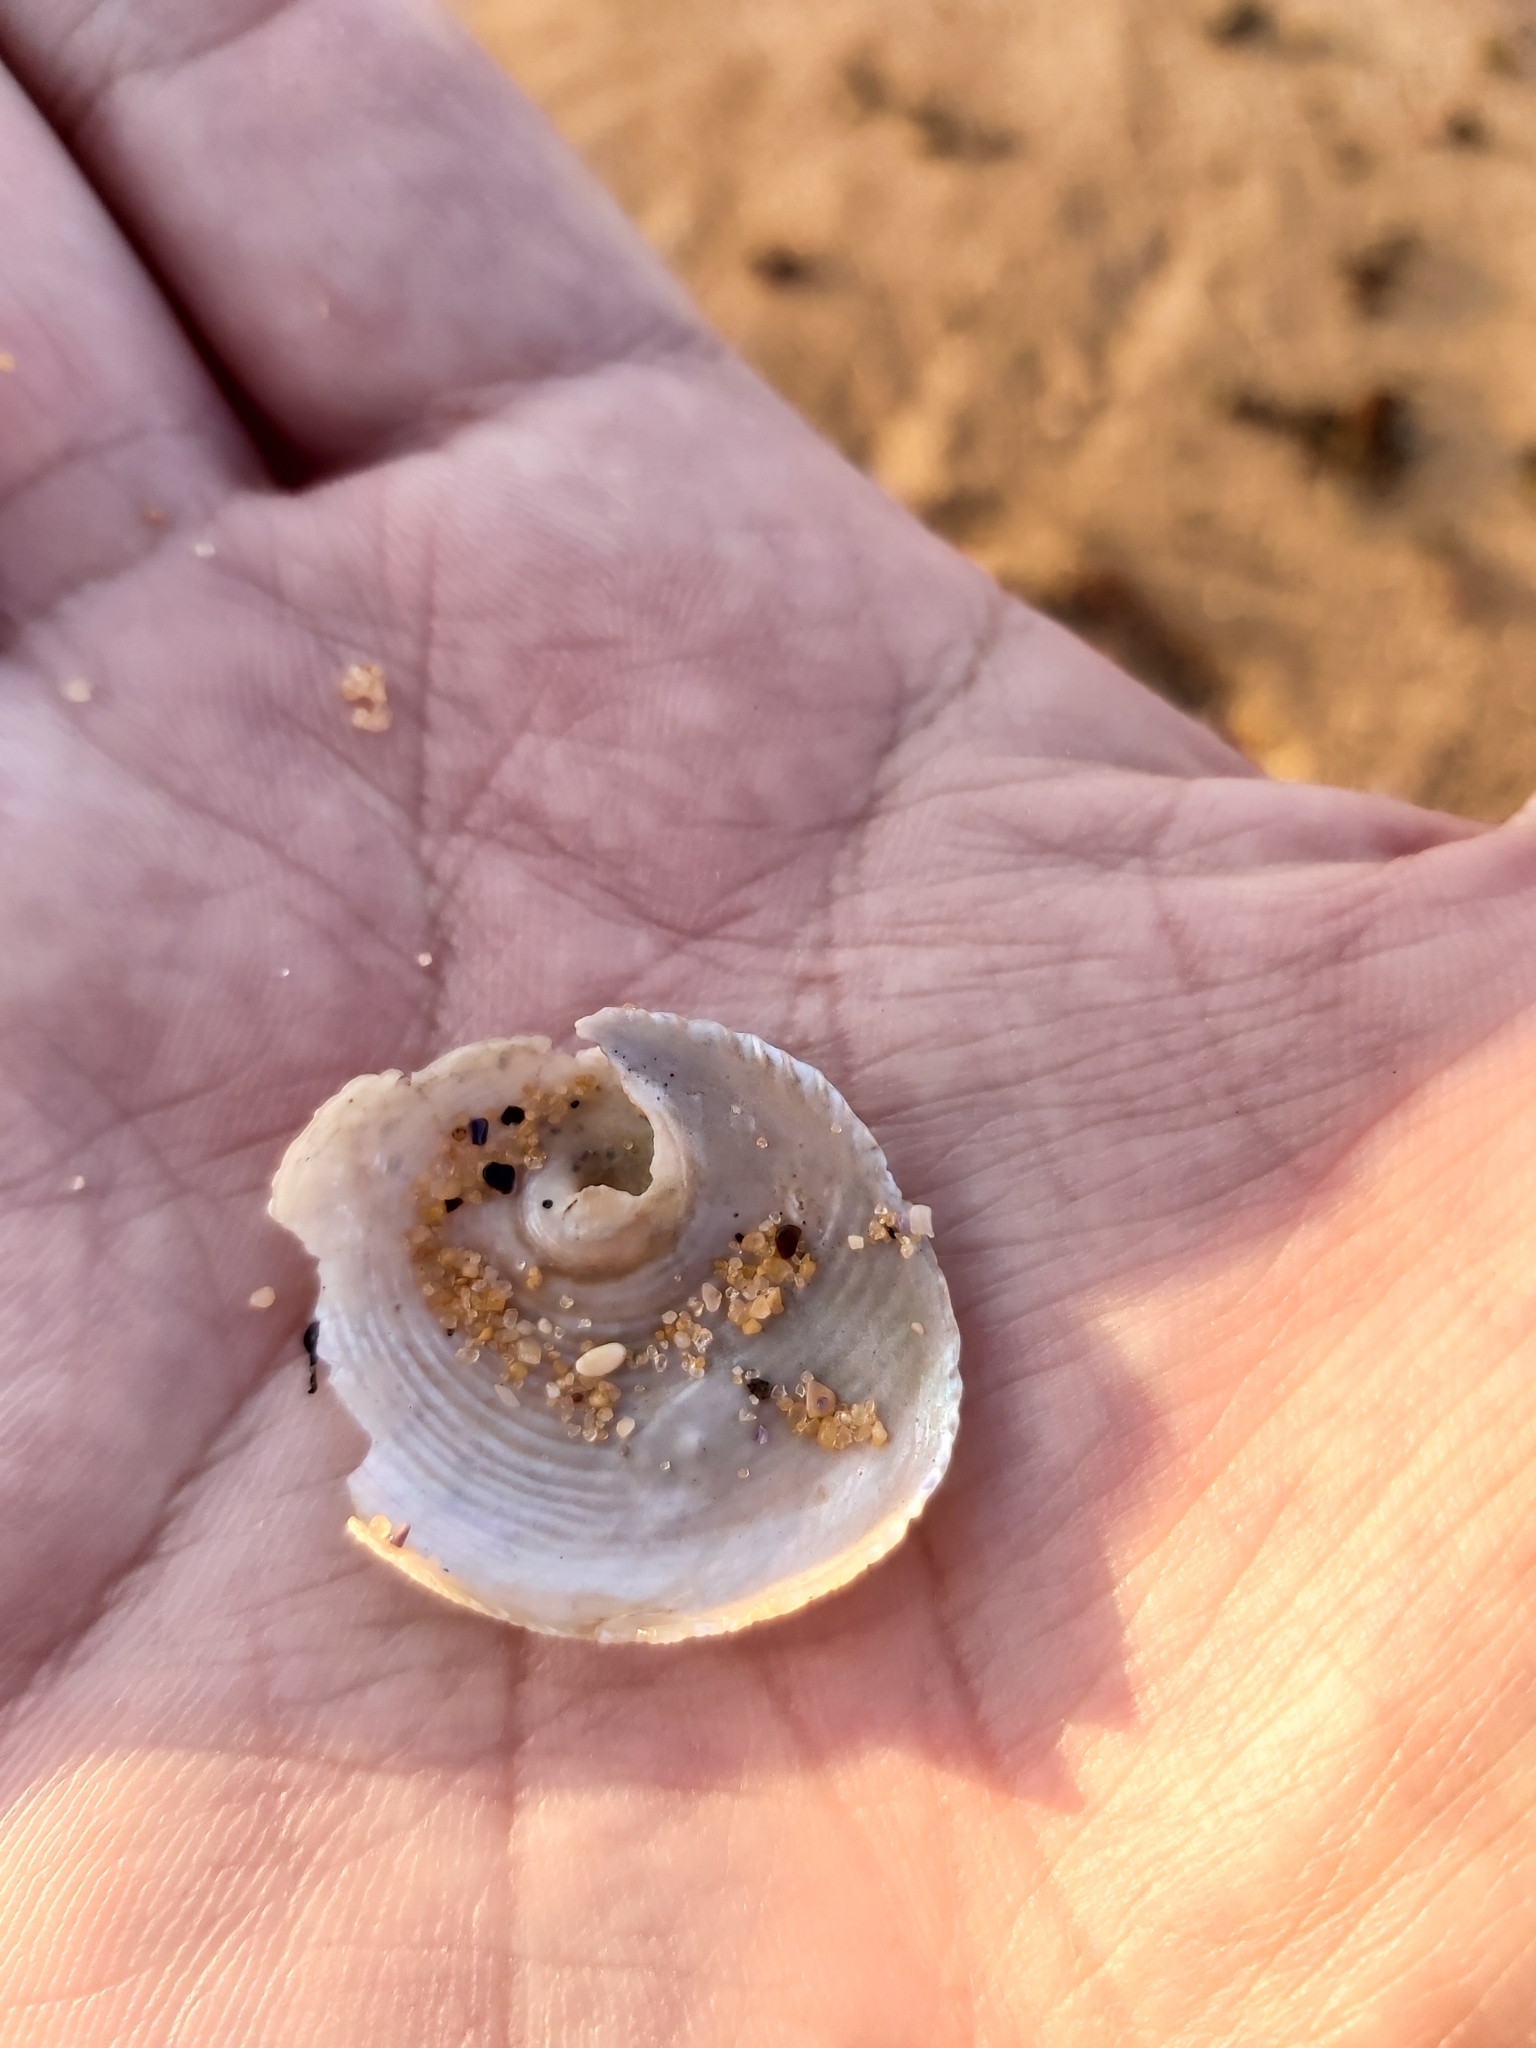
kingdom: Animalia
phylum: Mollusca
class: Gastropoda
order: Seguenziida
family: Chilodontaidae
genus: Granata
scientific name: Granata imbricata
